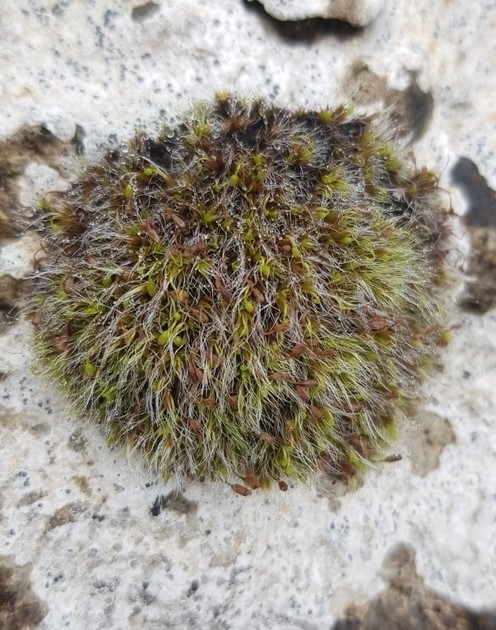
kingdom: Plantae
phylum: Bryophyta
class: Bryopsida
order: Grimmiales
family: Grimmiaceae
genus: Grimmia
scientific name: Grimmia pulvinata
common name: Grey-cushioned grimmia
